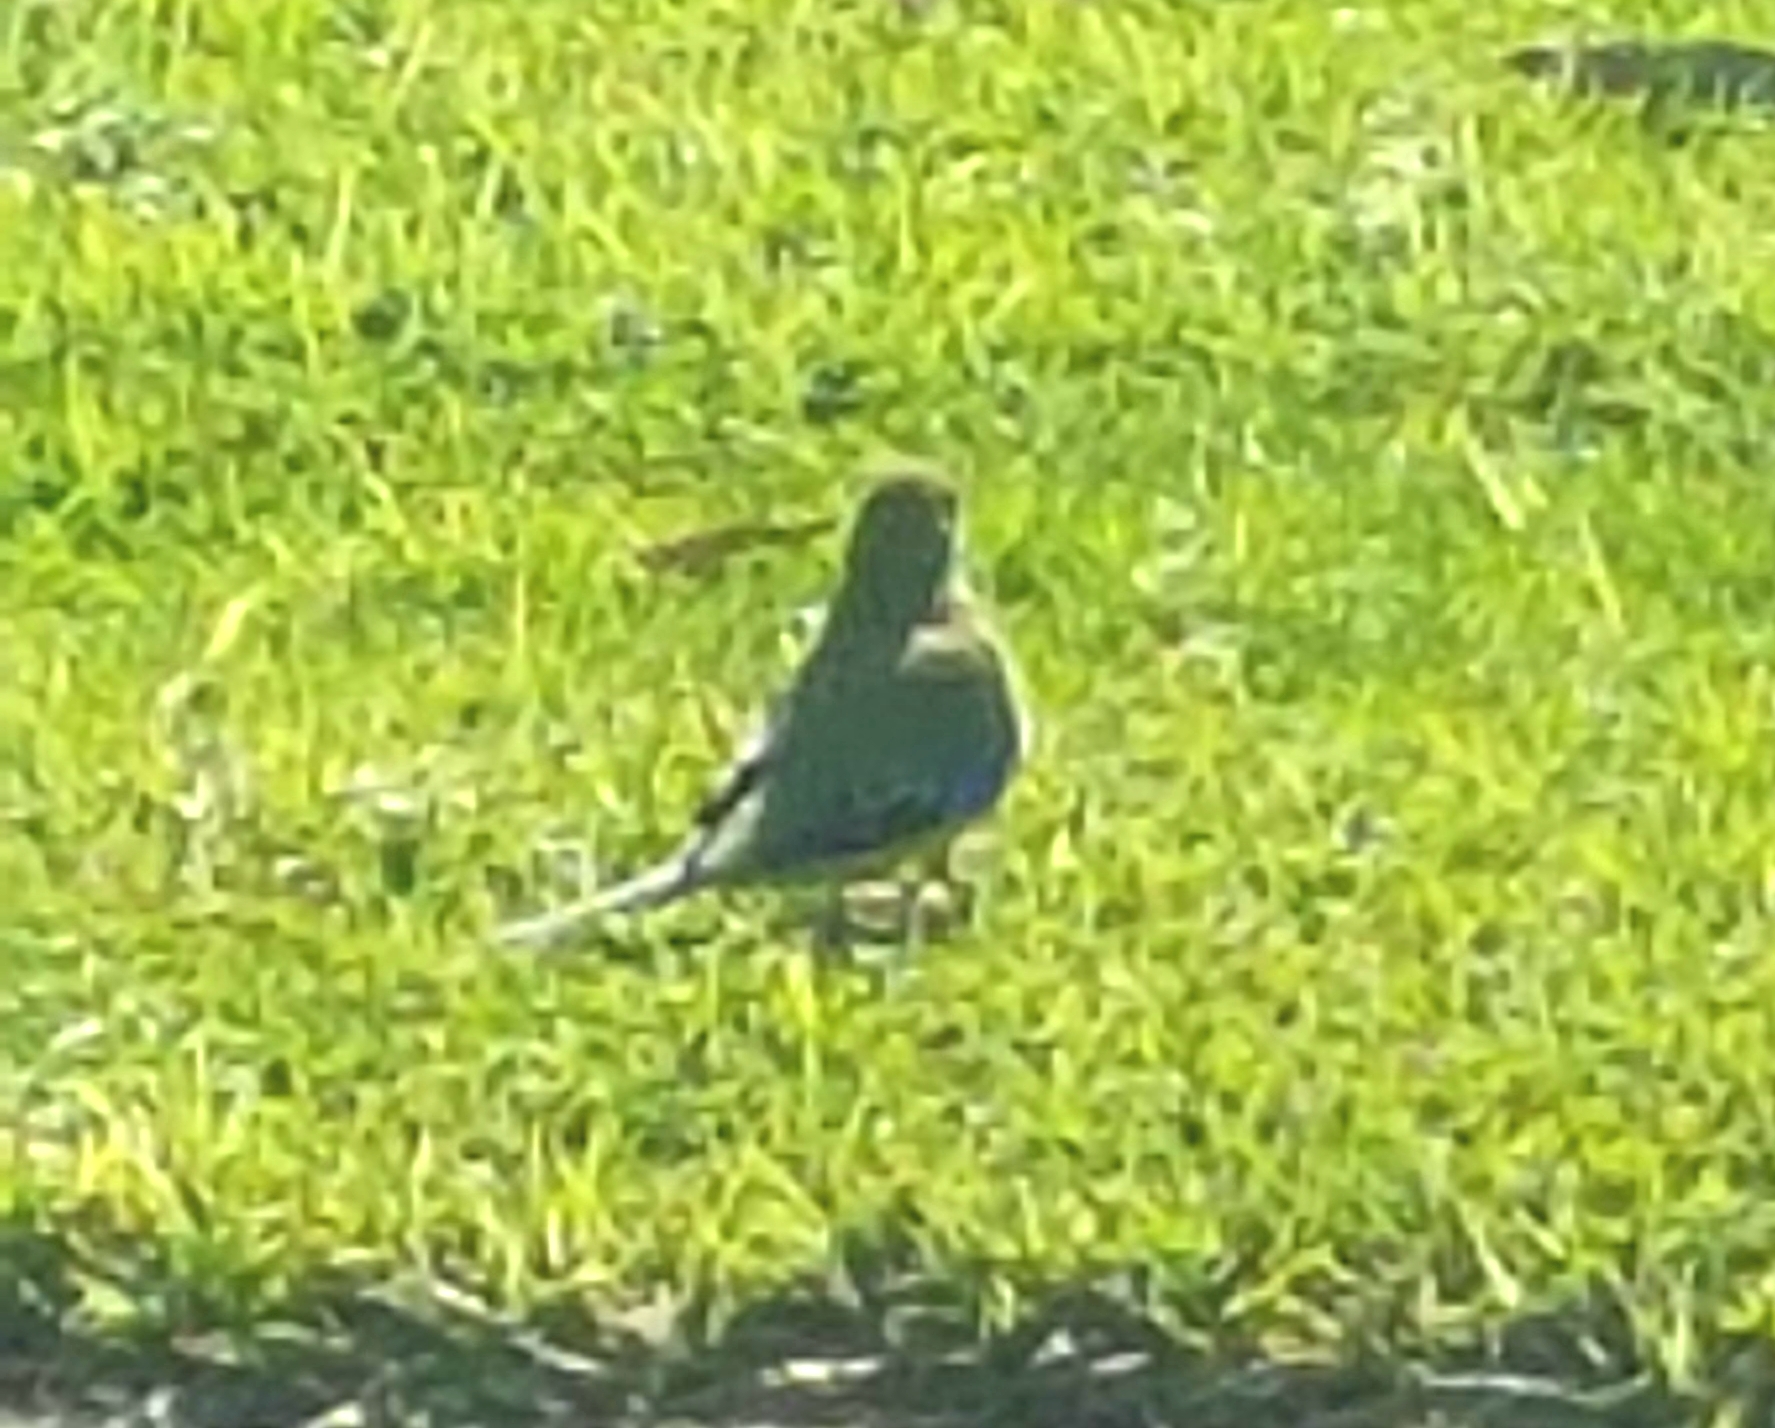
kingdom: Animalia
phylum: Chordata
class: Aves
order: Psittaciformes
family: Psittacidae
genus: Neophema
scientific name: Neophema chrysostoma
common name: Blue-winged parrot
